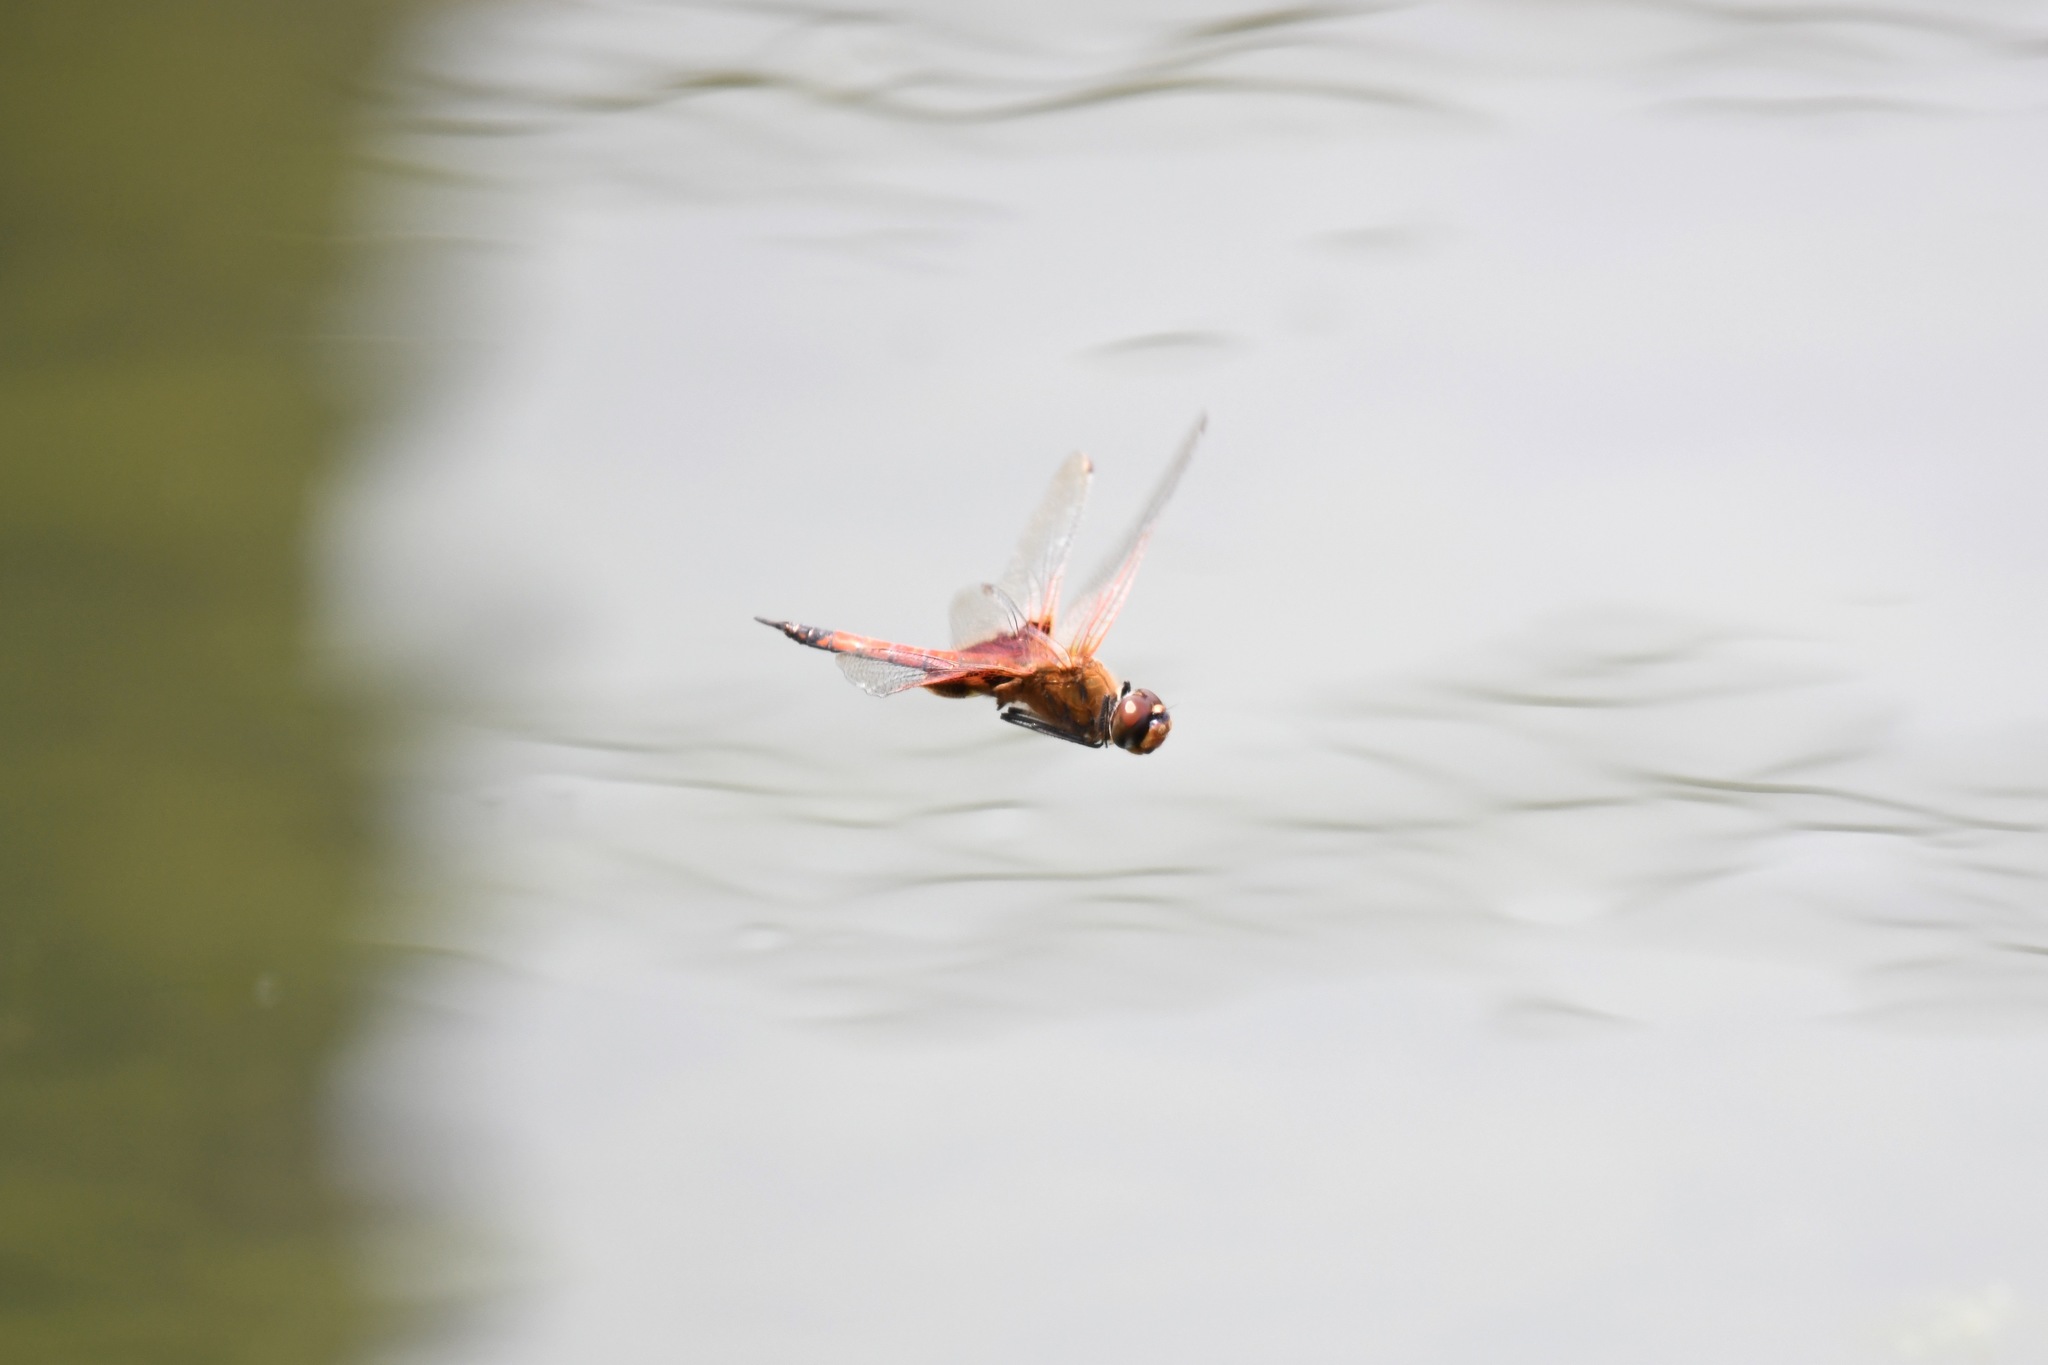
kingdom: Animalia
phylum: Arthropoda
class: Insecta
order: Odonata
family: Libellulidae
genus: Tramea
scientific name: Tramea virginia
